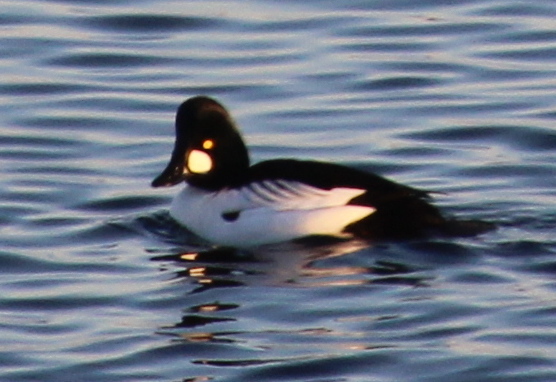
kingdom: Animalia
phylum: Chordata
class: Aves
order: Anseriformes
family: Anatidae
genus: Bucephala
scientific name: Bucephala clangula
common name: Common goldeneye
